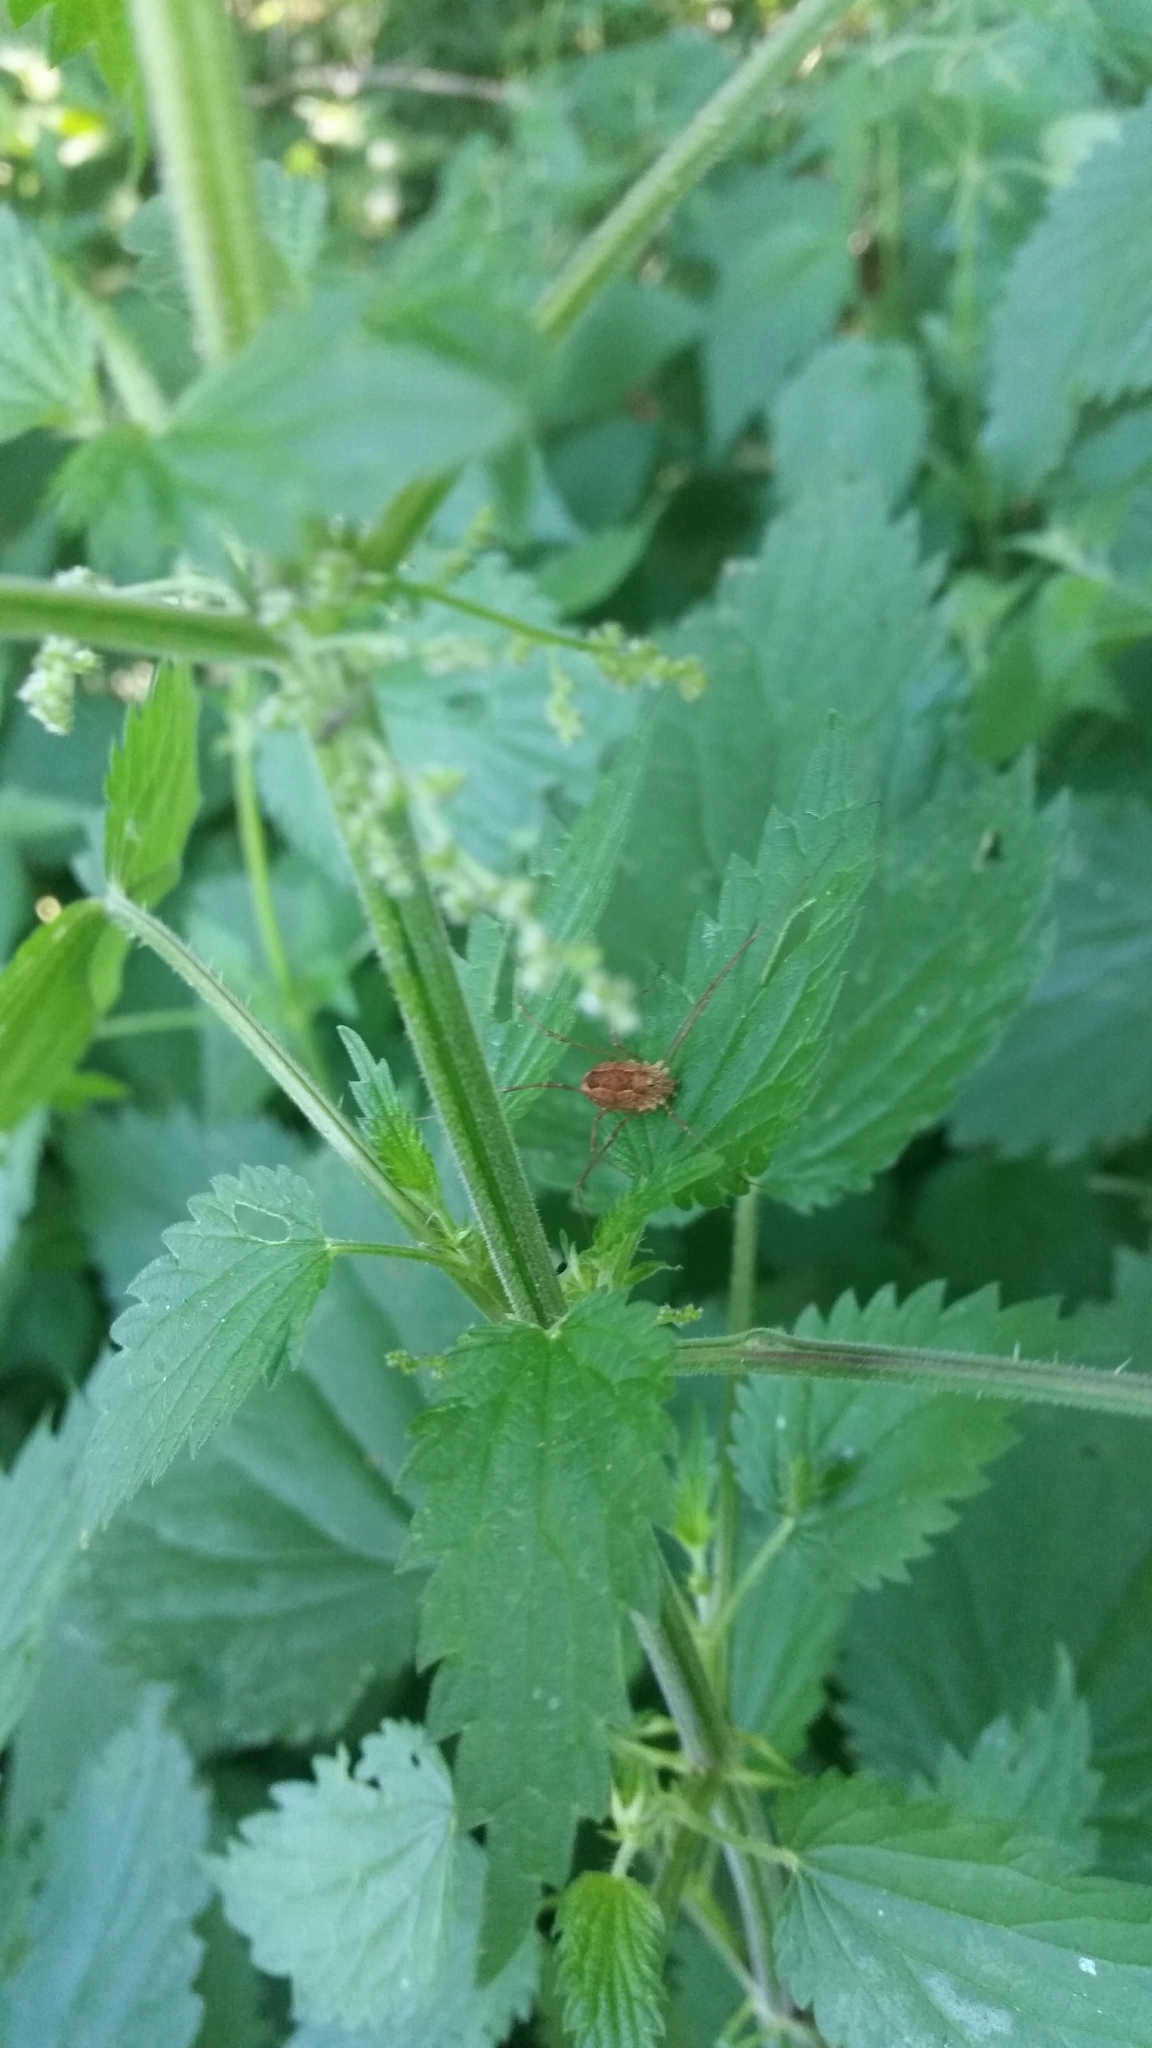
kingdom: Animalia
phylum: Arthropoda
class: Arachnida
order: Opiliones
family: Phalangiidae
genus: Rilaena
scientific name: Rilaena triangularis
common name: Spring harvestman
